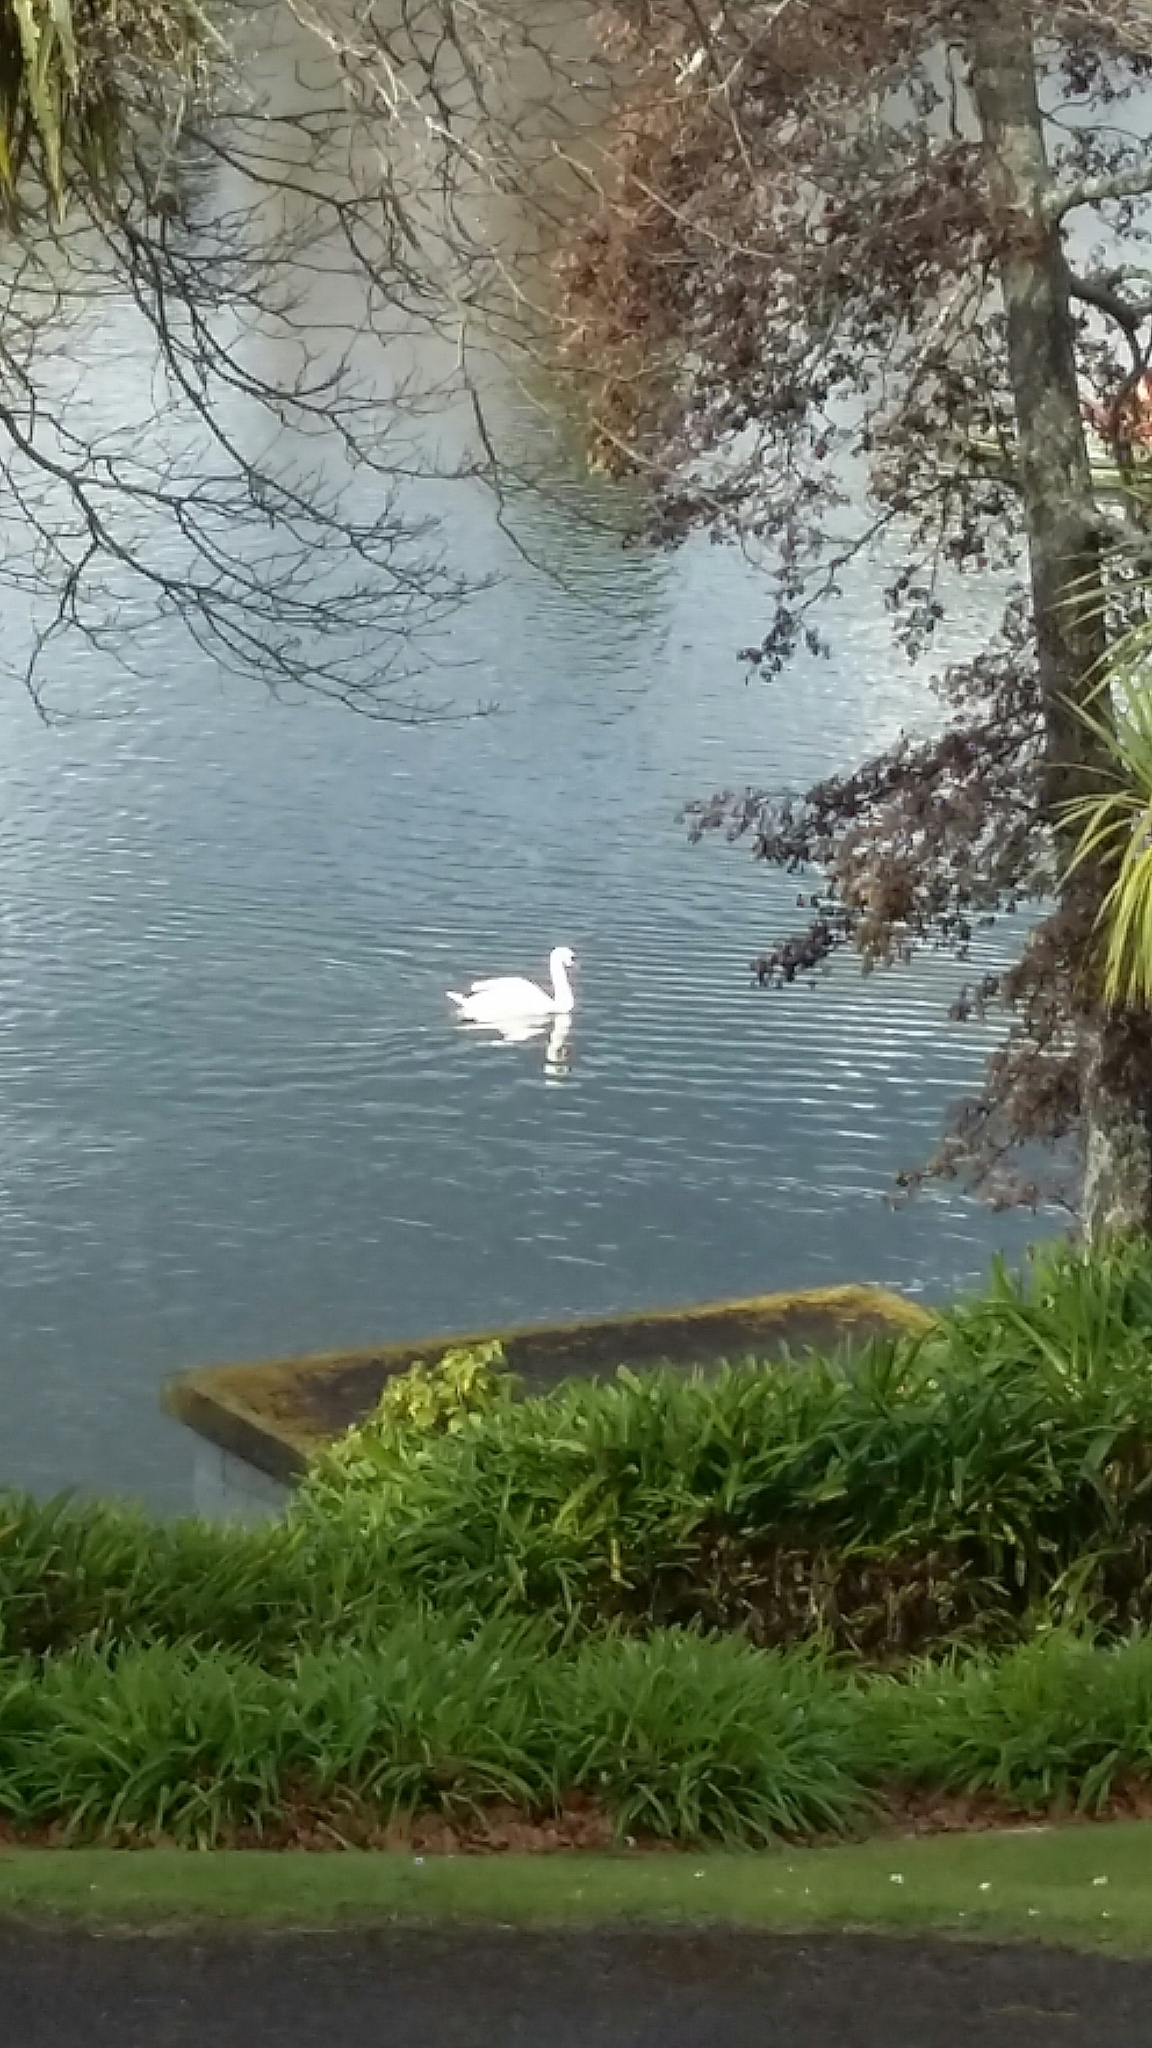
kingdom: Animalia
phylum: Chordata
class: Aves
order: Anseriformes
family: Anatidae
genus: Cygnus
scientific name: Cygnus olor
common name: Mute swan
